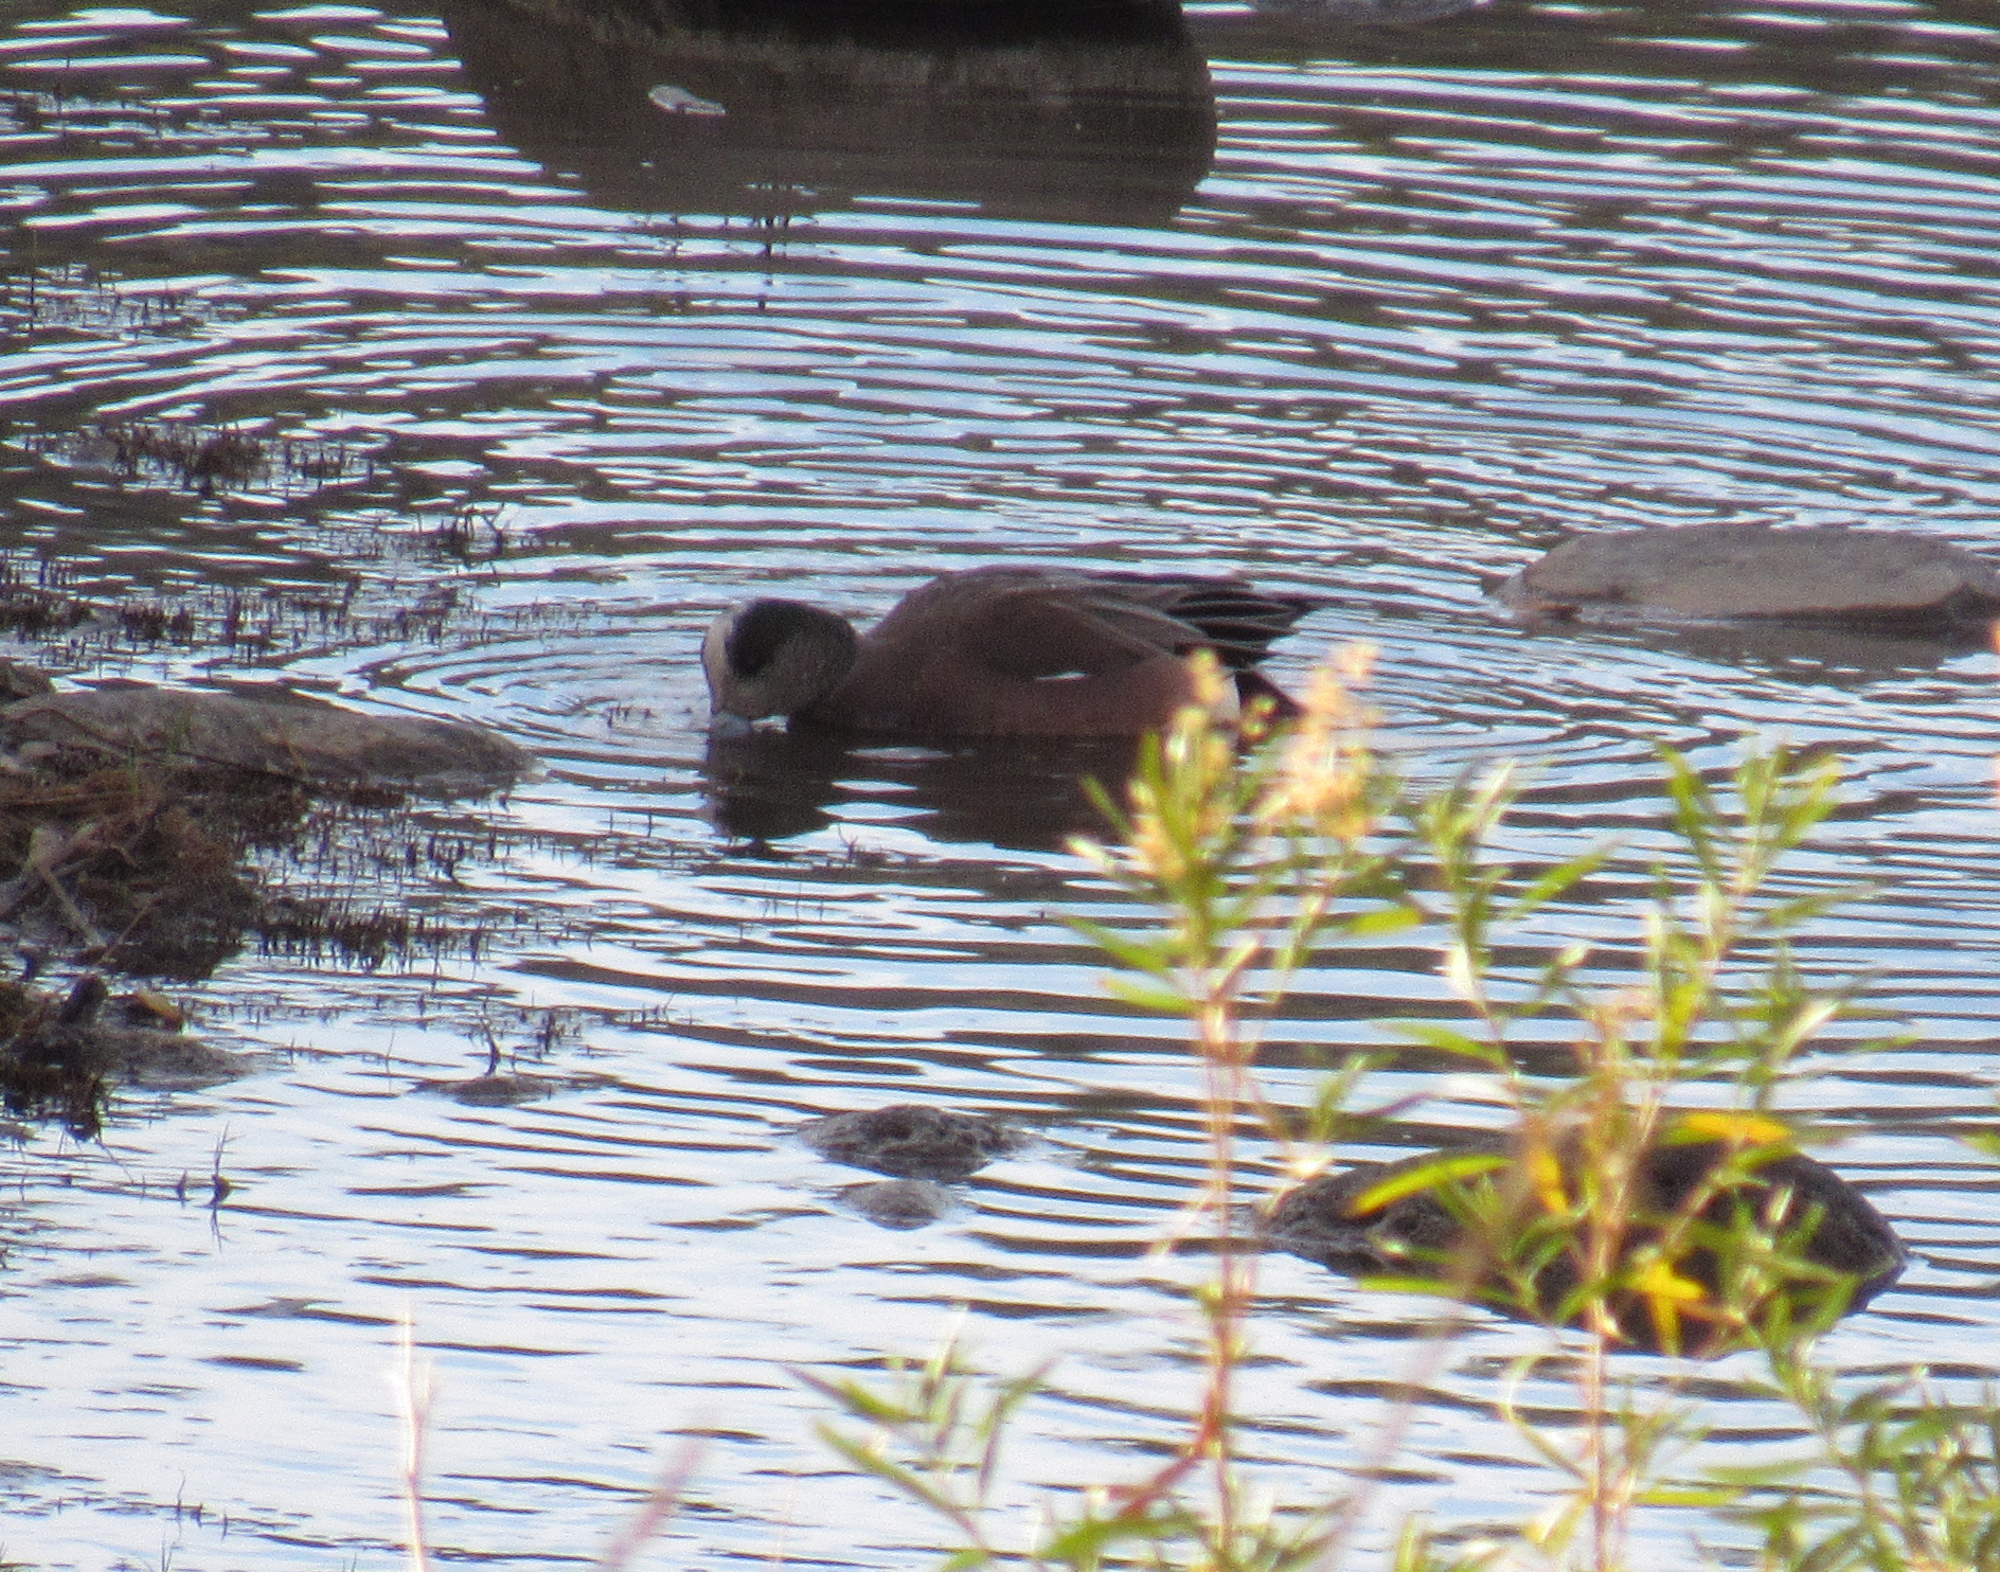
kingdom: Animalia
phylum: Chordata
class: Aves
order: Anseriformes
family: Anatidae
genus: Mareca
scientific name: Mareca americana
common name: American wigeon
